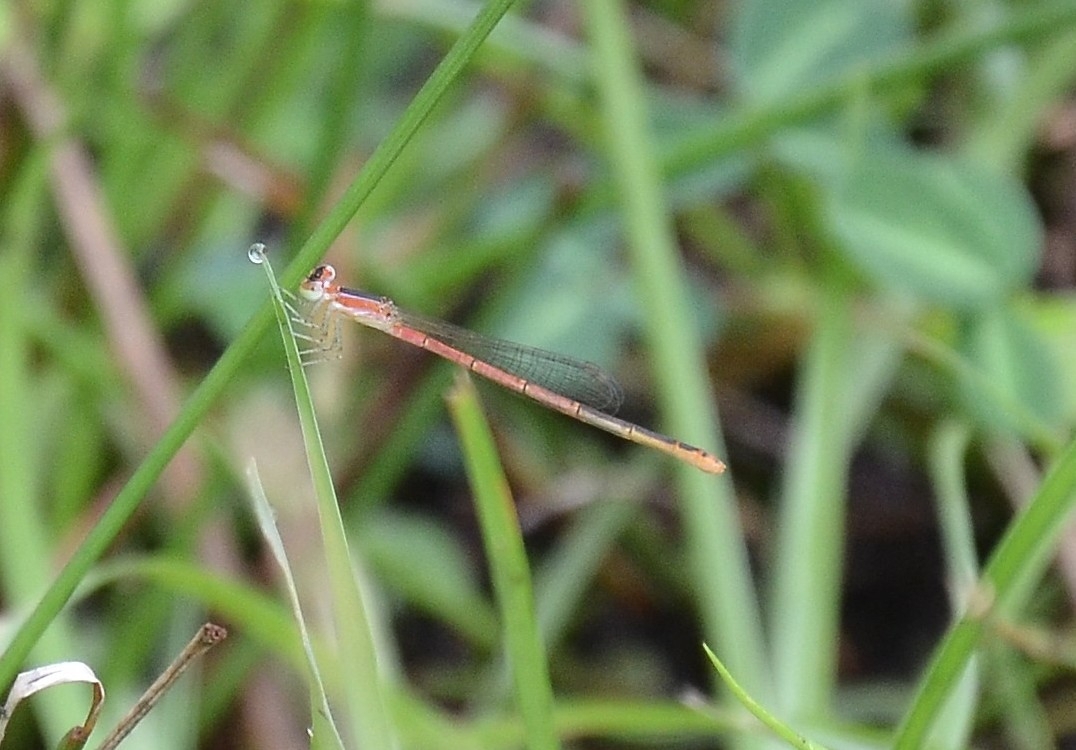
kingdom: Animalia
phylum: Arthropoda
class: Insecta
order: Odonata
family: Coenagrionidae
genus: Agriocnemis
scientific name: Agriocnemis pygmaea
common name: Pygmy wisp
